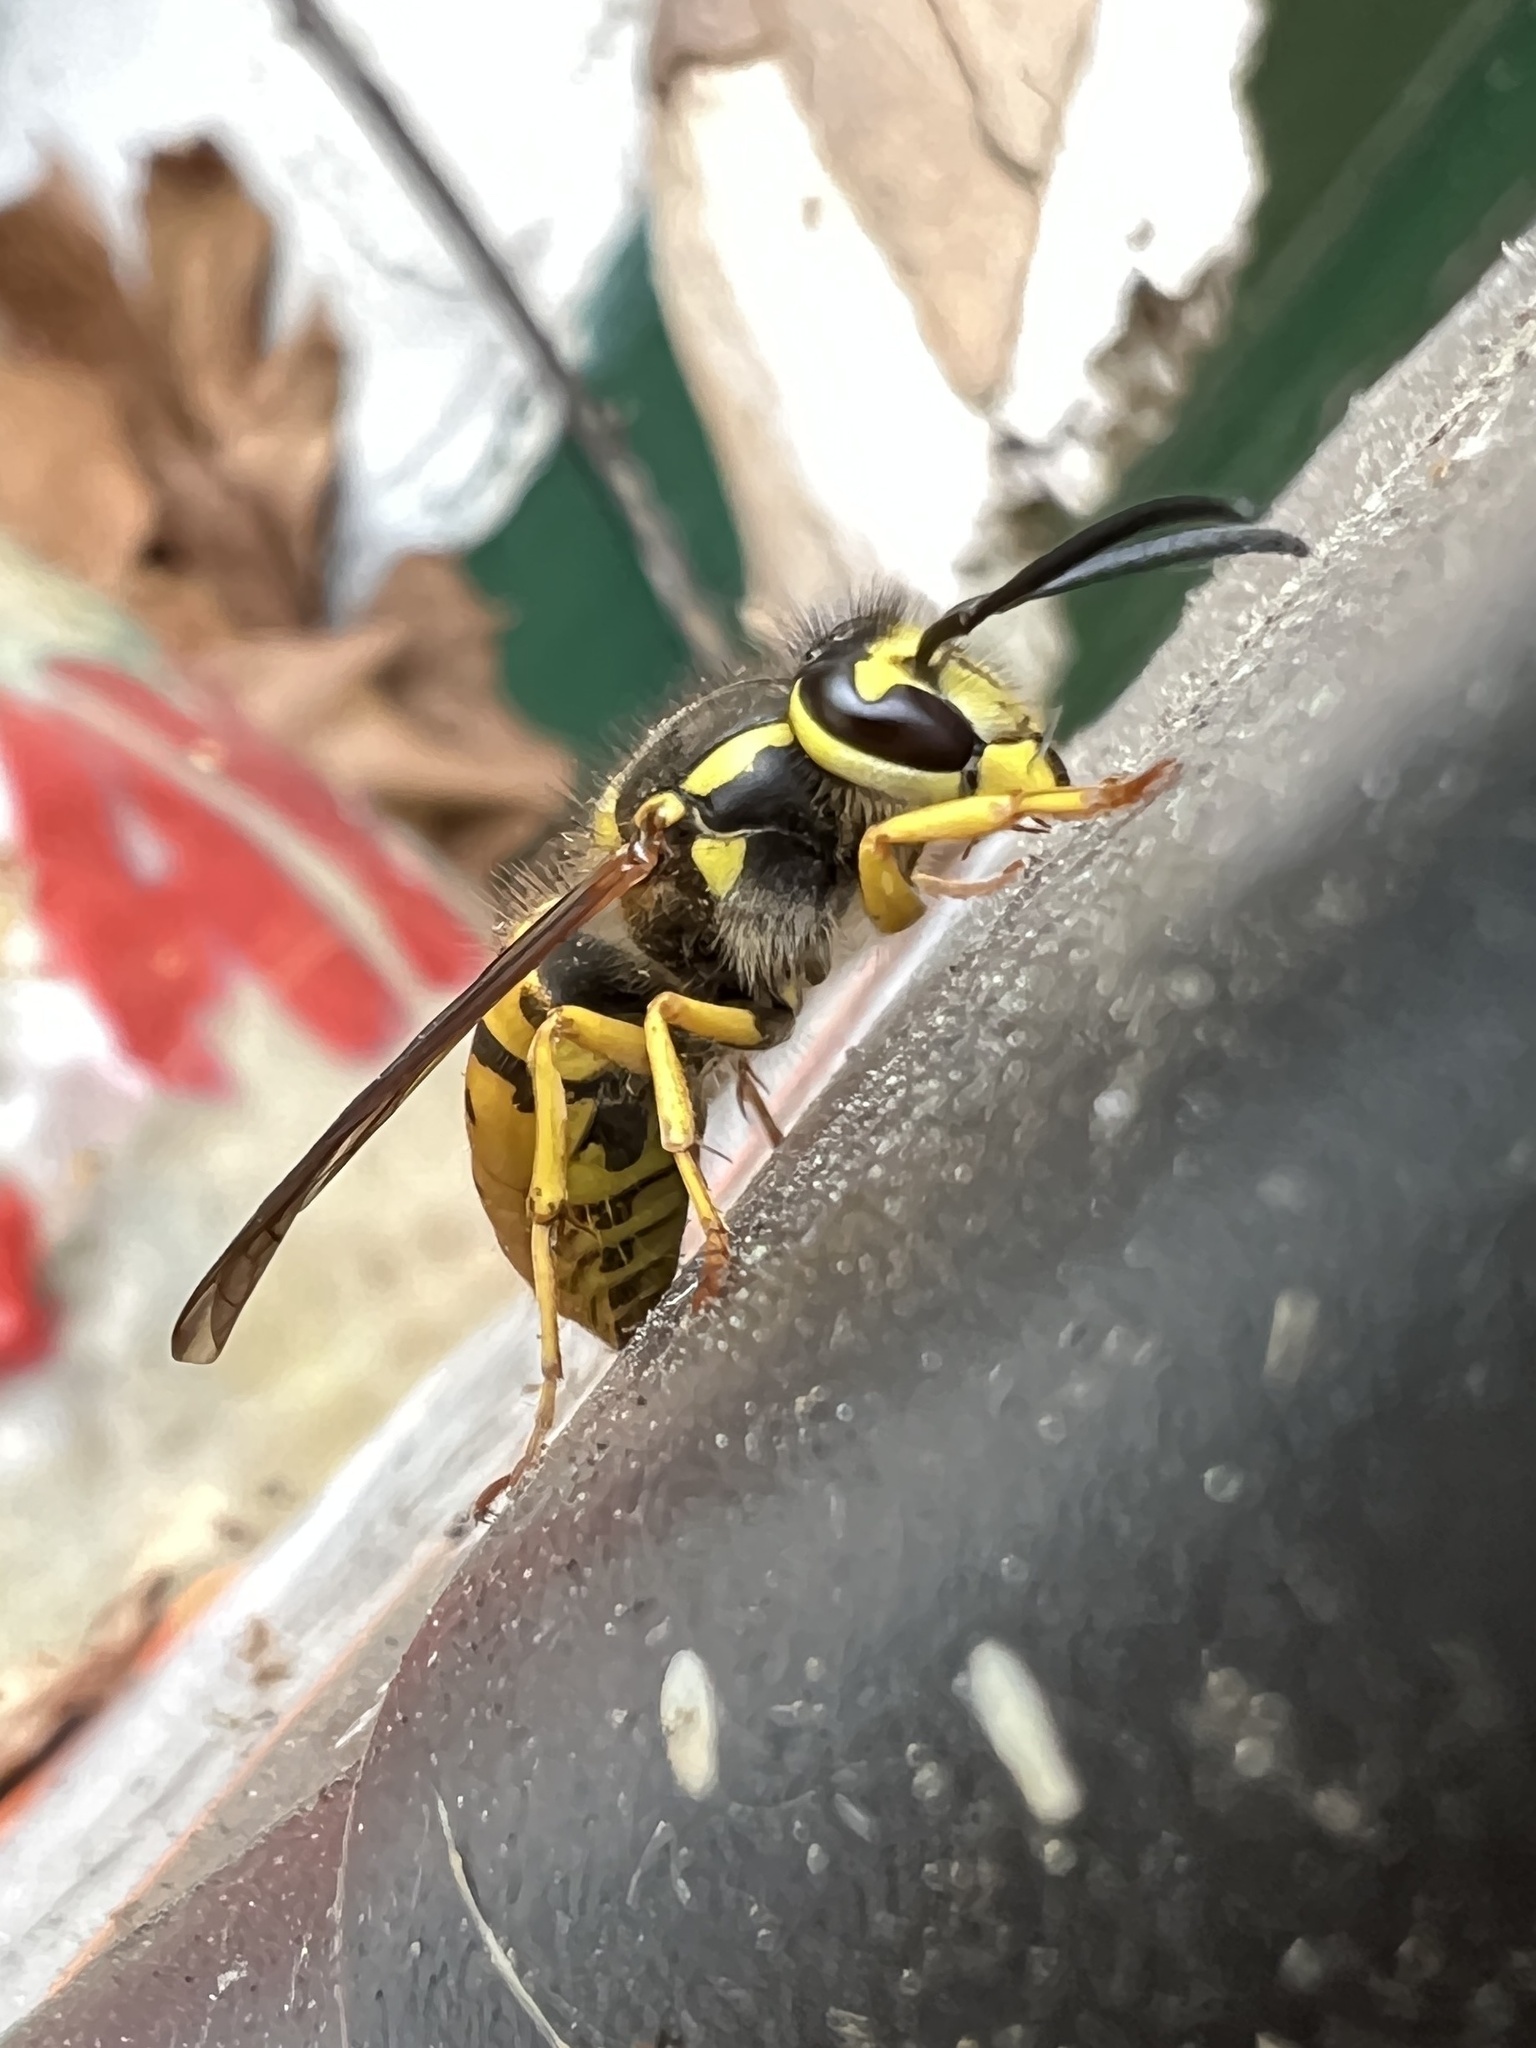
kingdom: Animalia
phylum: Arthropoda
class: Insecta
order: Hymenoptera
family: Vespidae
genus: Vespula
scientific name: Vespula maculifrons
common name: Eastern yellowjacket
